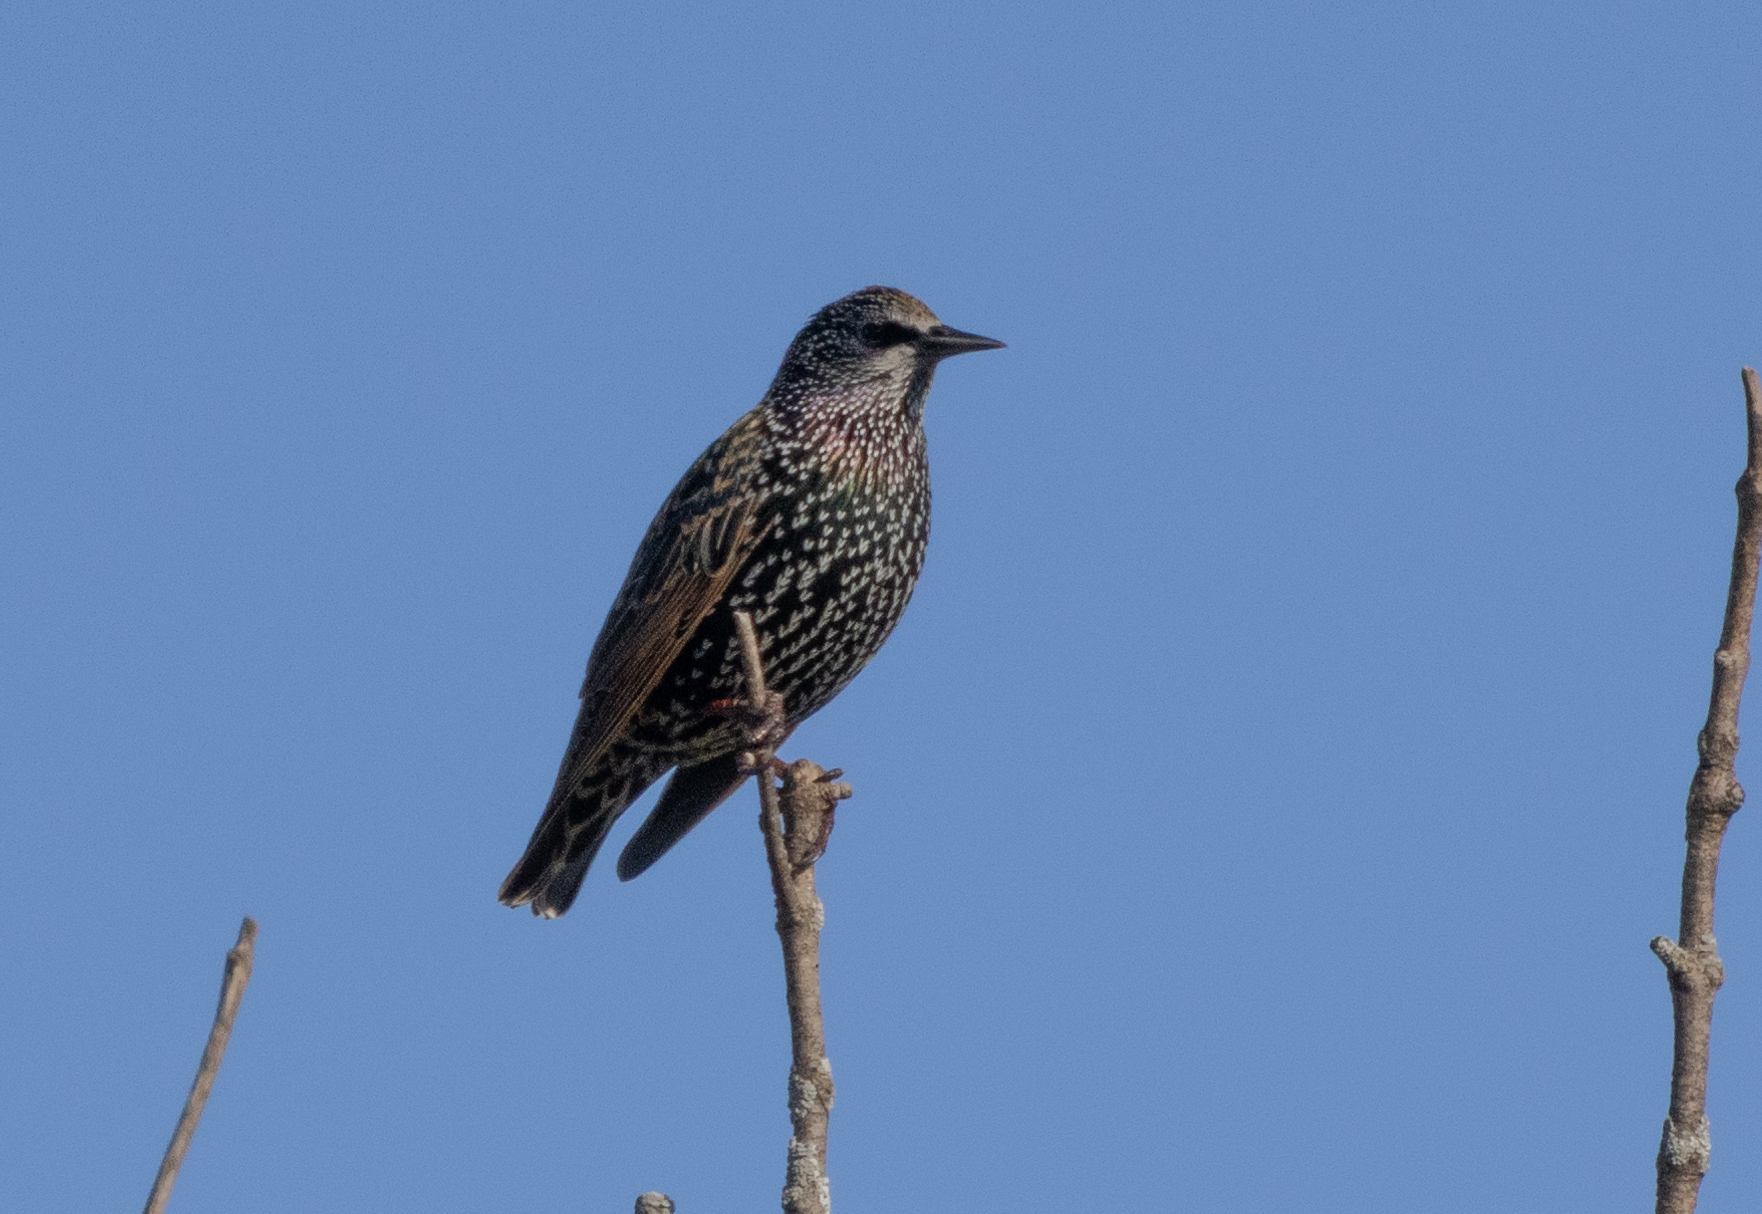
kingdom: Animalia
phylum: Chordata
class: Aves
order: Passeriformes
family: Sturnidae
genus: Sturnus
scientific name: Sturnus vulgaris
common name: Common starling
